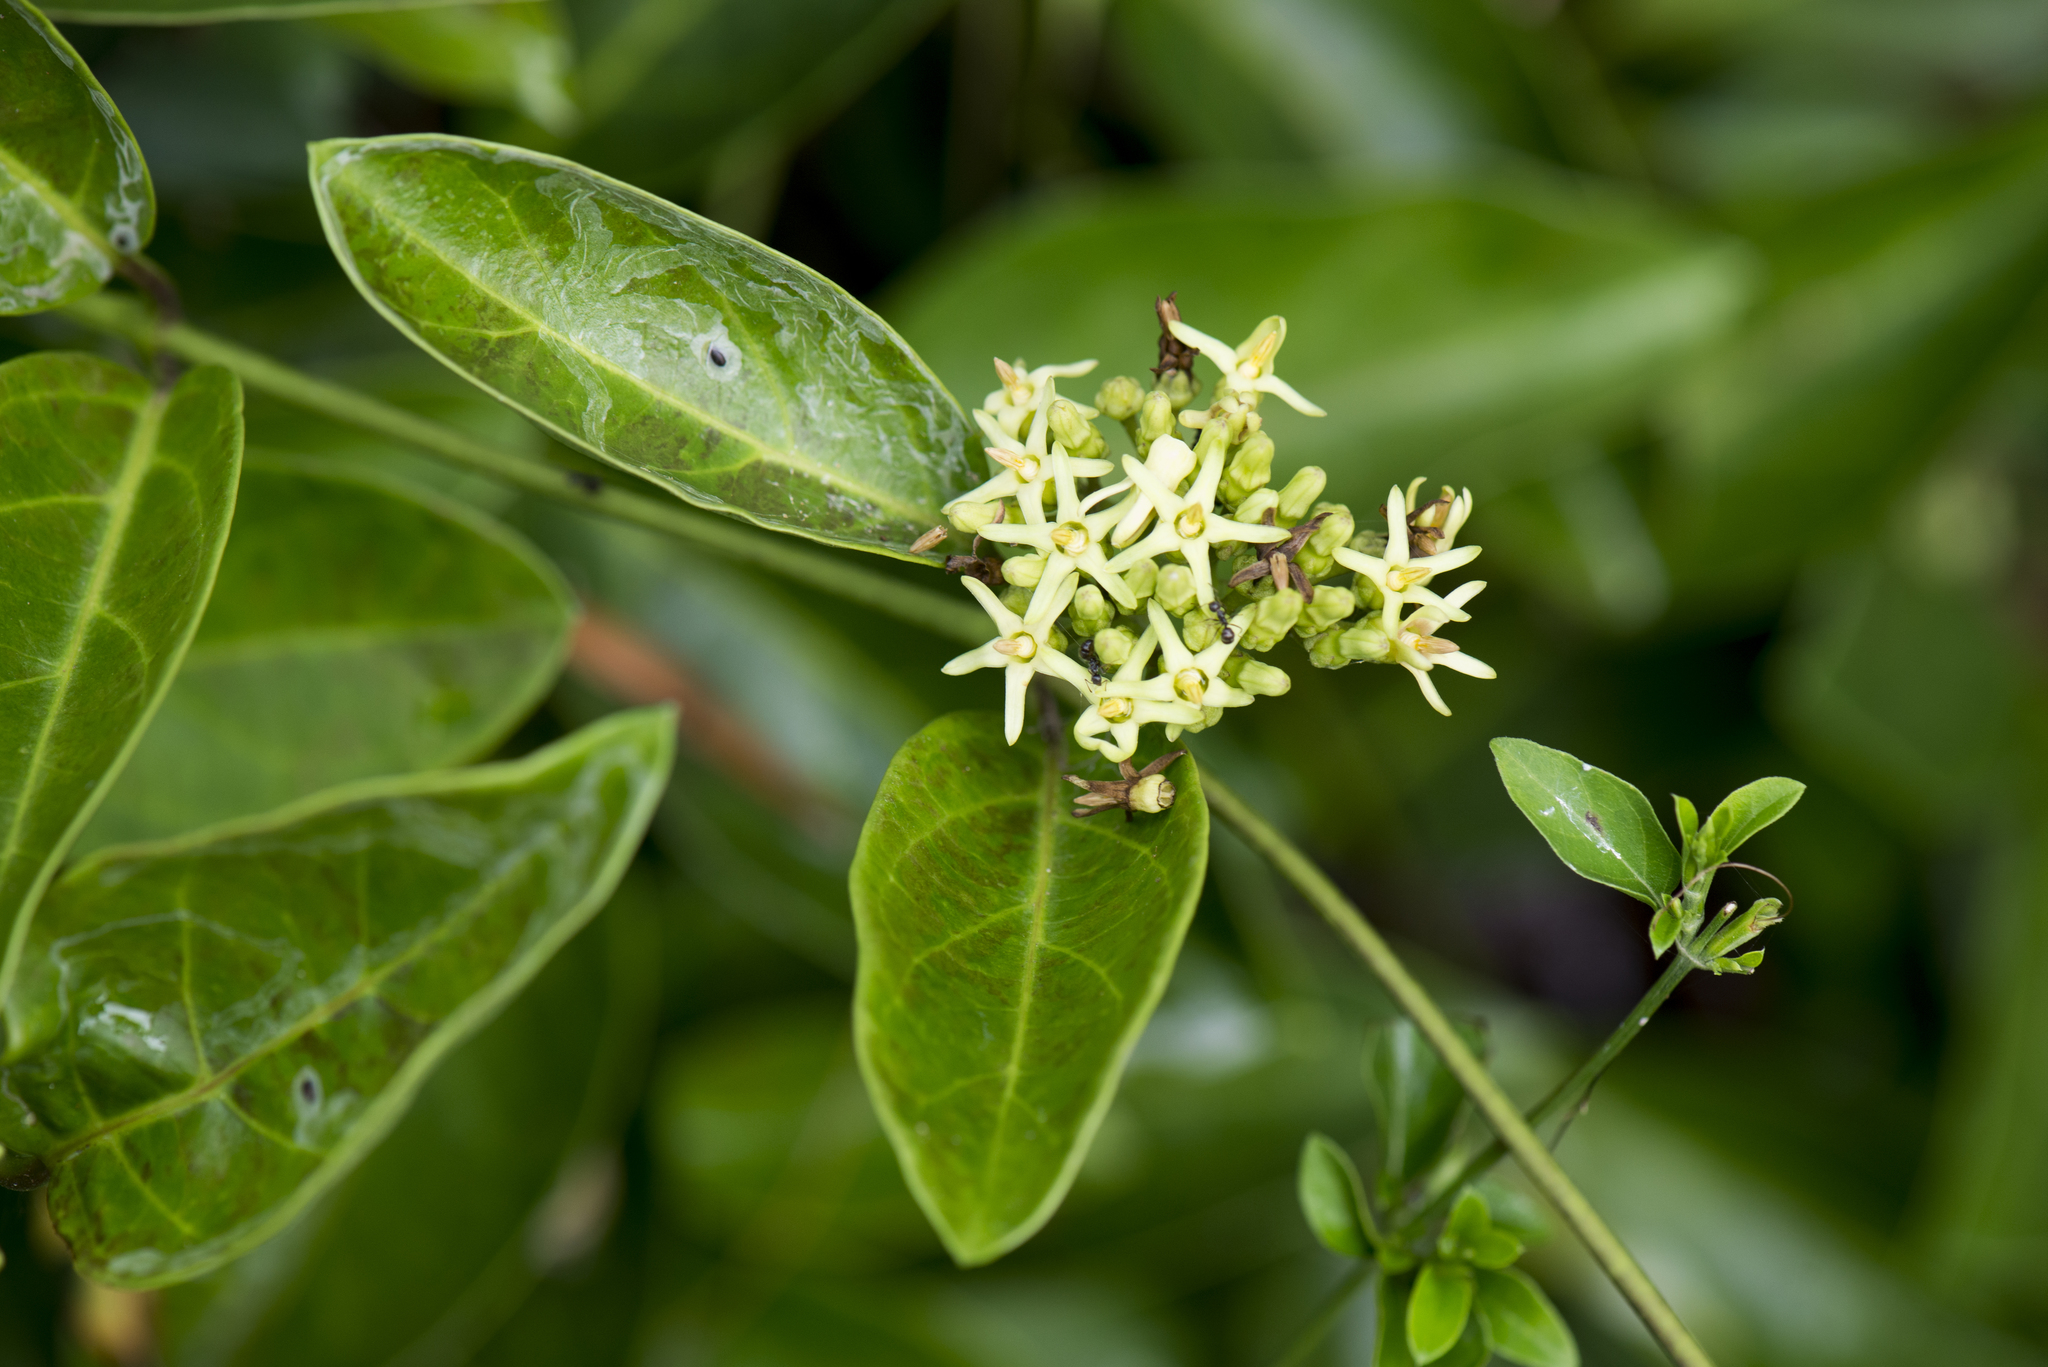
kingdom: Plantae
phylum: Tracheophyta
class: Magnoliopsida
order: Gentianales
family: Apocynaceae
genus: Parsonsia
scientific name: Parsonsia alboflavescens
